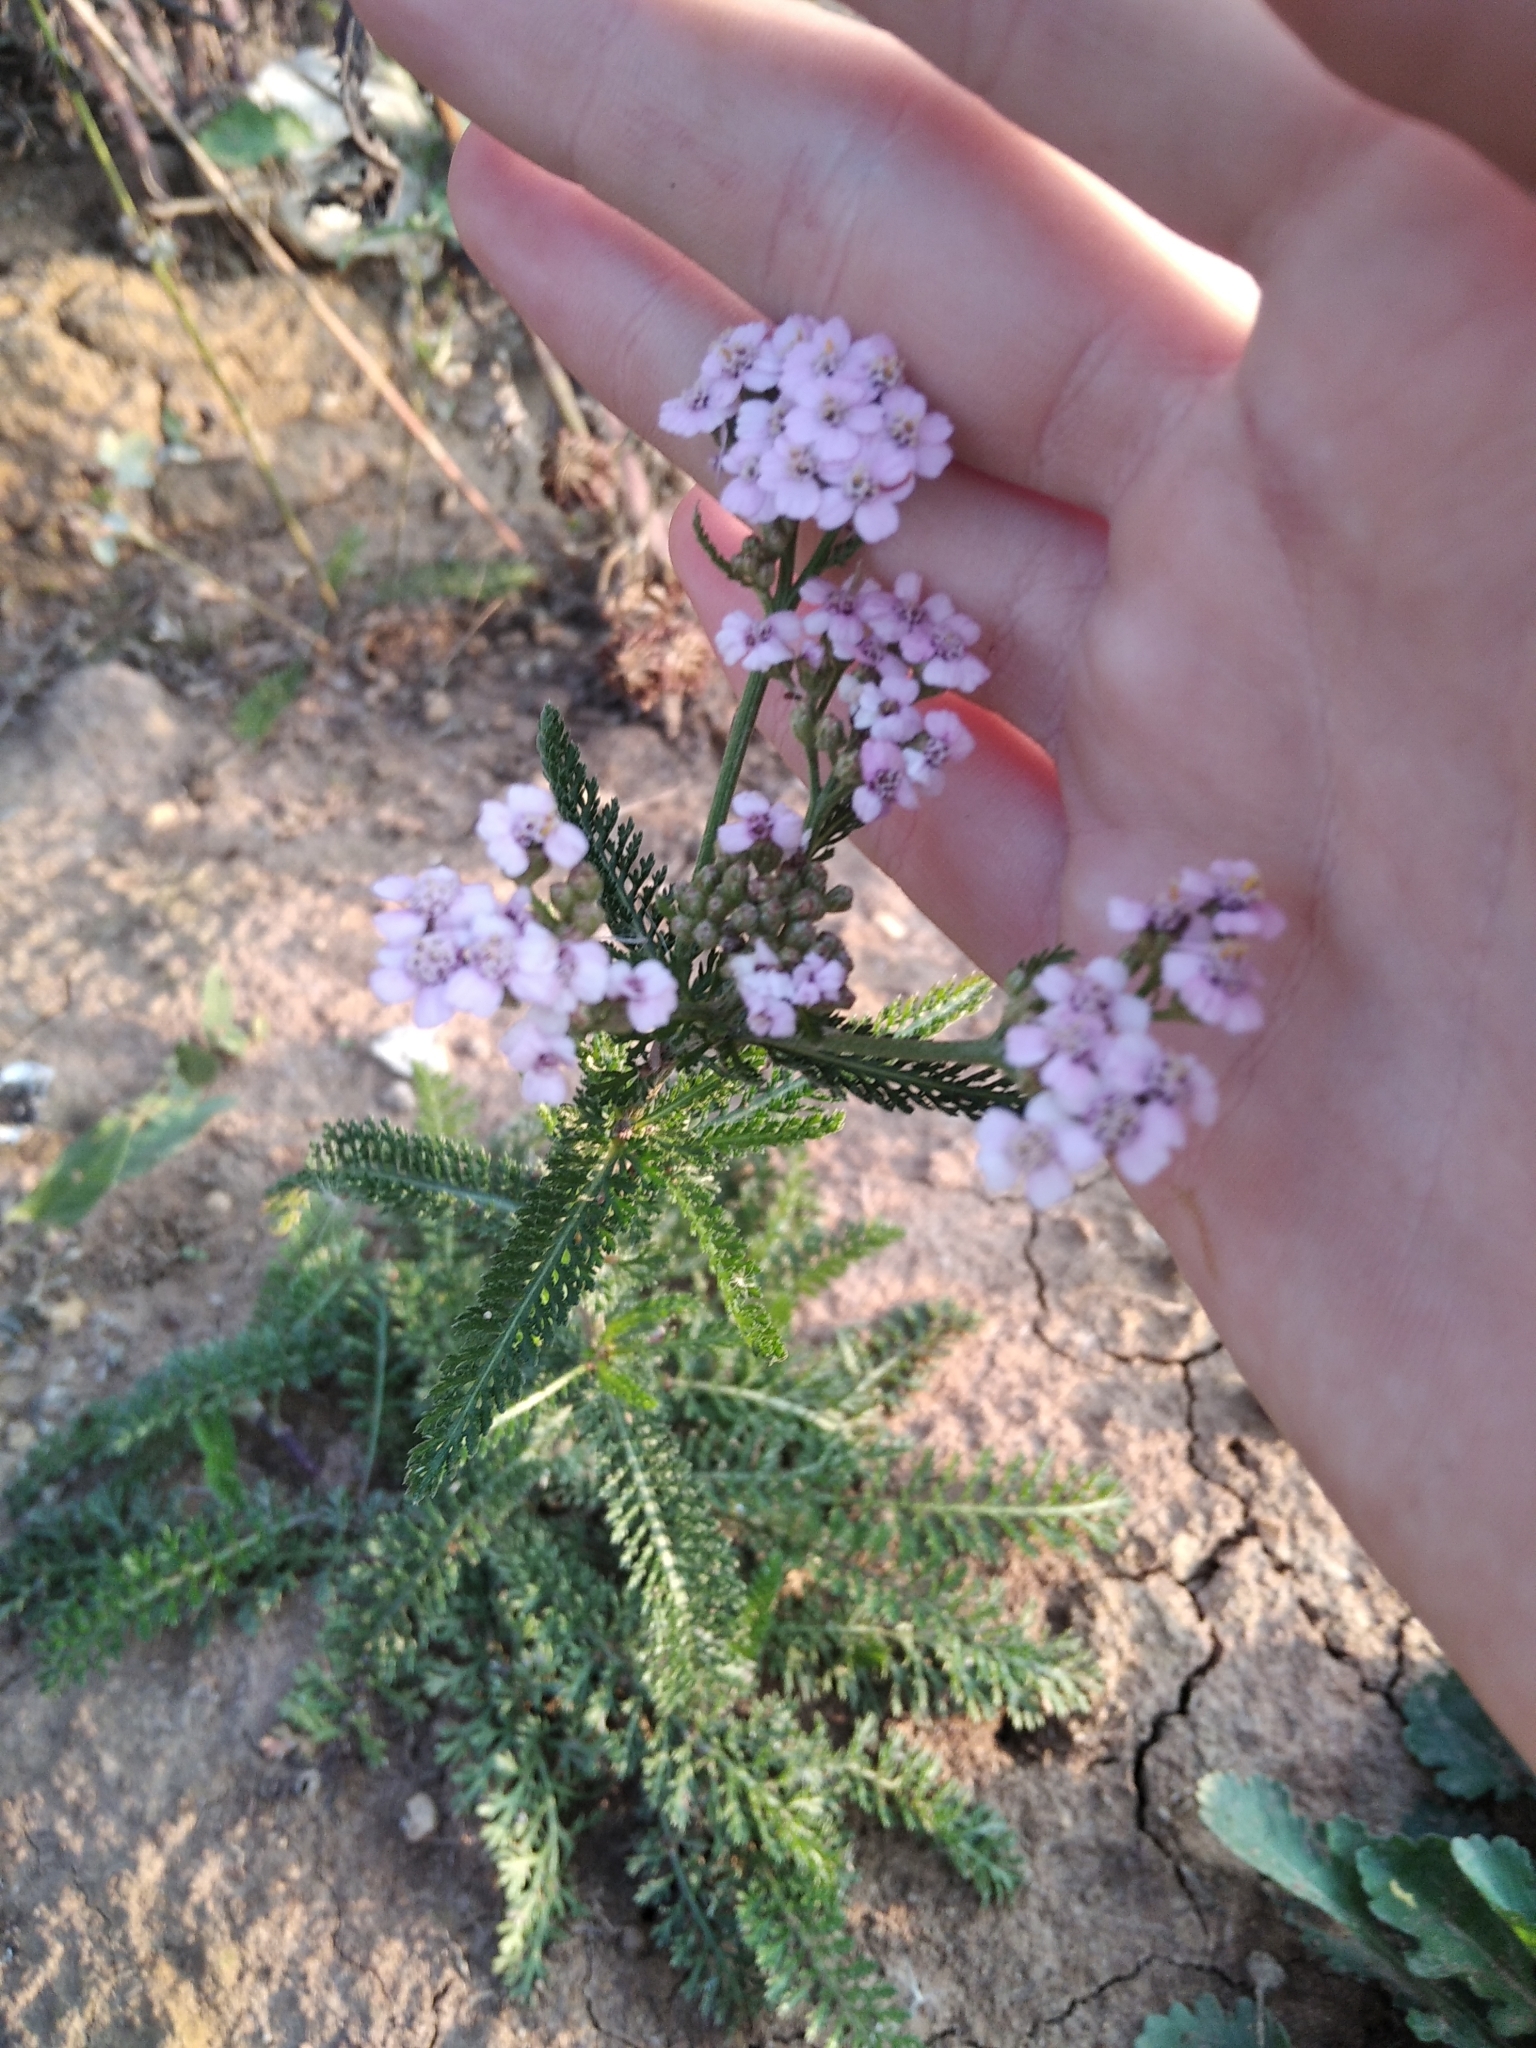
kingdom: Plantae
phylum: Tracheophyta
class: Magnoliopsida
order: Asterales
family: Asteraceae
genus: Achillea
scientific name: Achillea millefolium
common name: Yarrow
